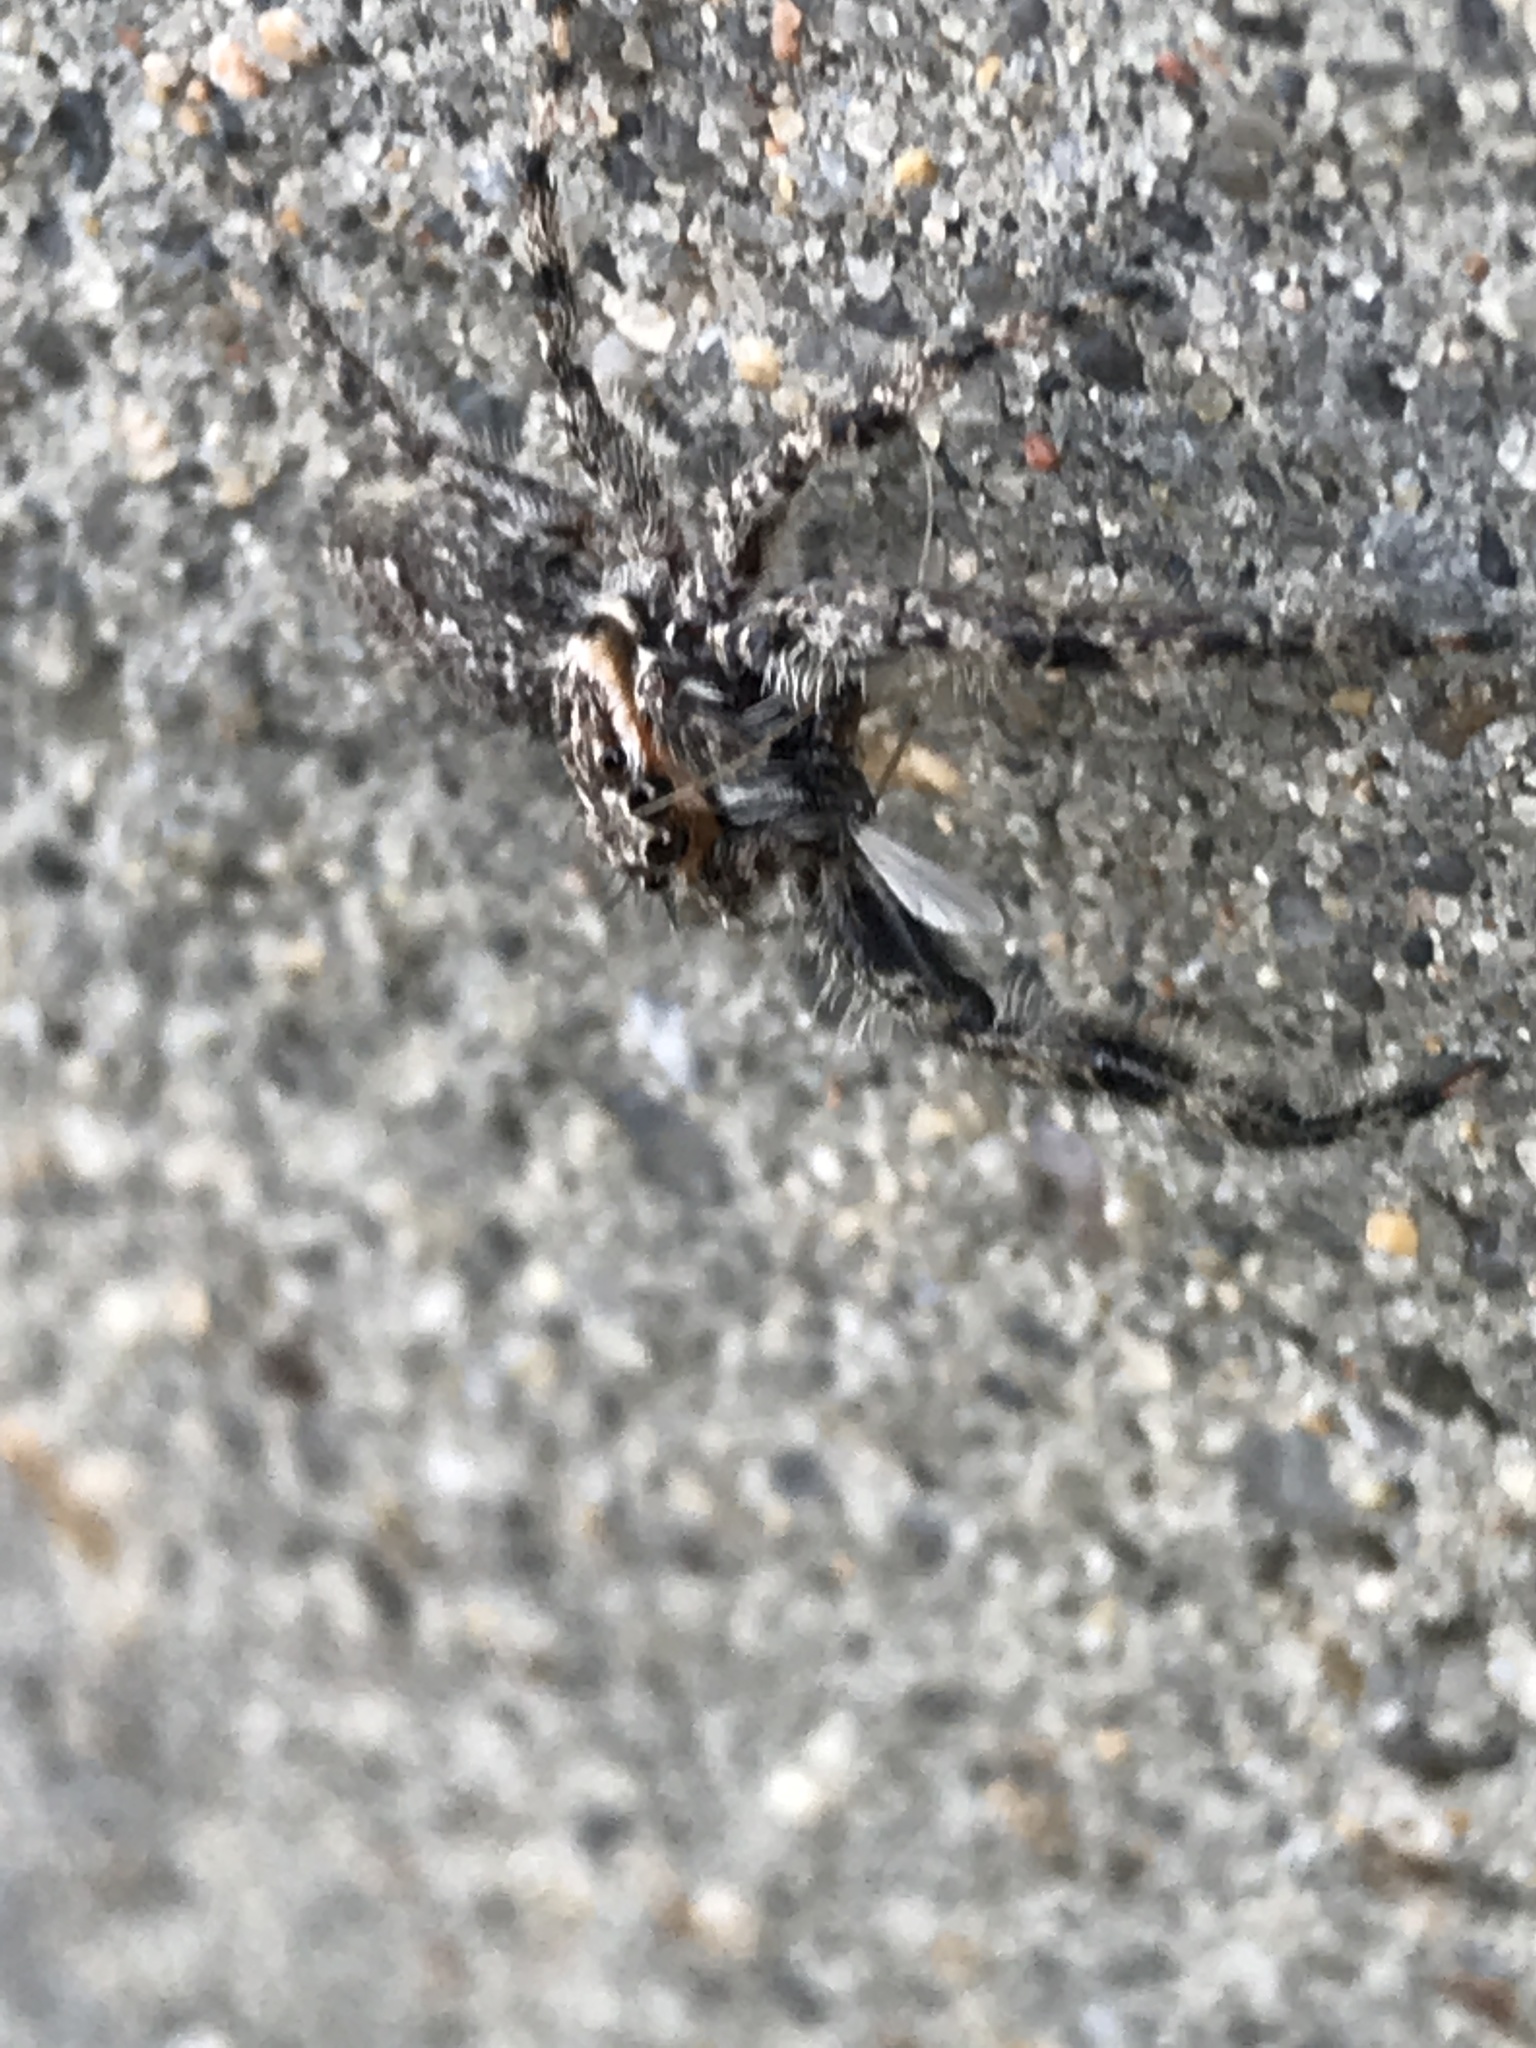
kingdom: Animalia
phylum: Arthropoda
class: Arachnida
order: Araneae
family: Salticidae
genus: Platycryptus
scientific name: Platycryptus undatus
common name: Tan jumping spider
